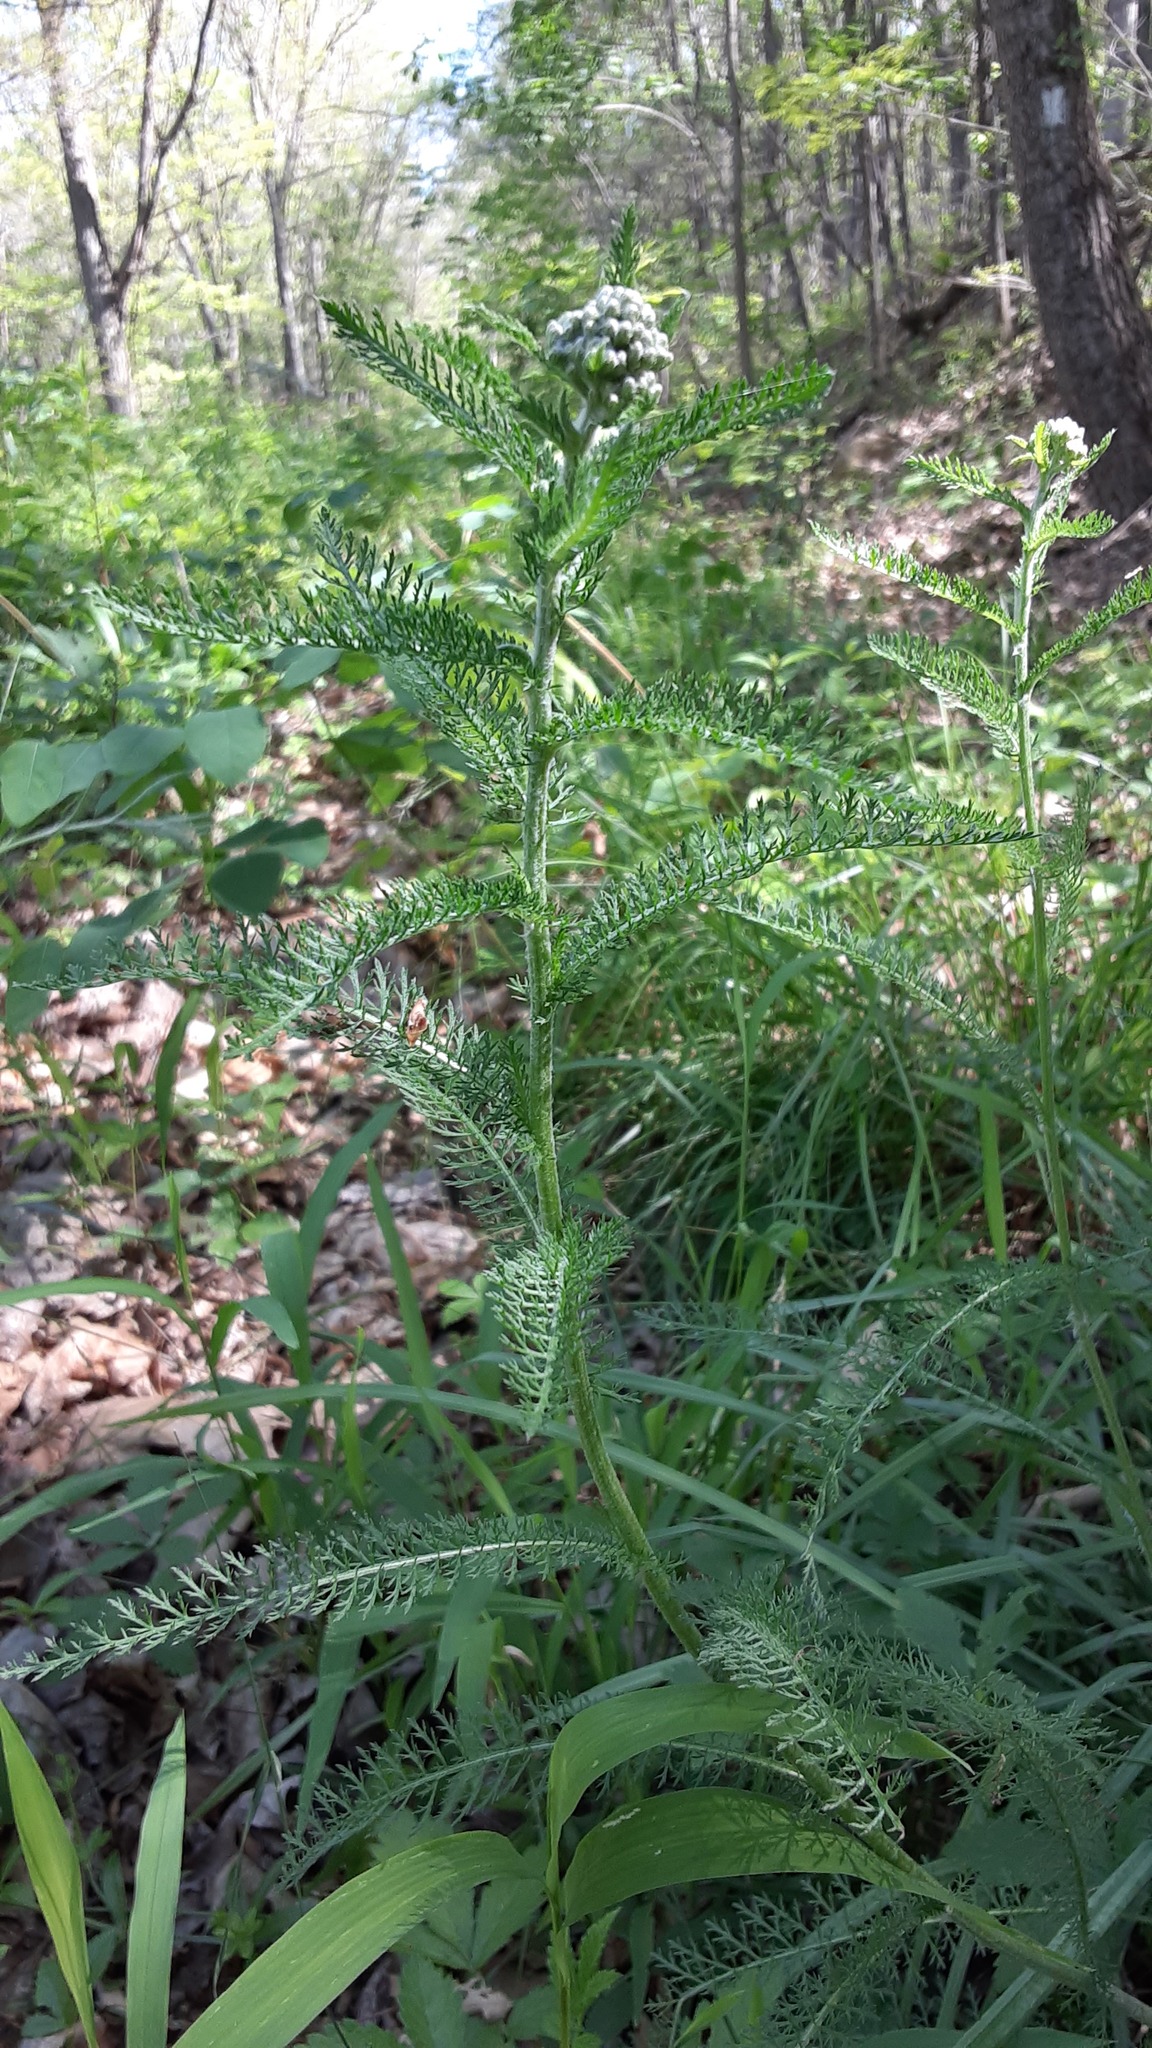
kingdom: Plantae
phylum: Tracheophyta
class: Magnoliopsida
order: Asterales
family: Asteraceae
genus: Achillea
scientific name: Achillea millefolium
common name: Yarrow
